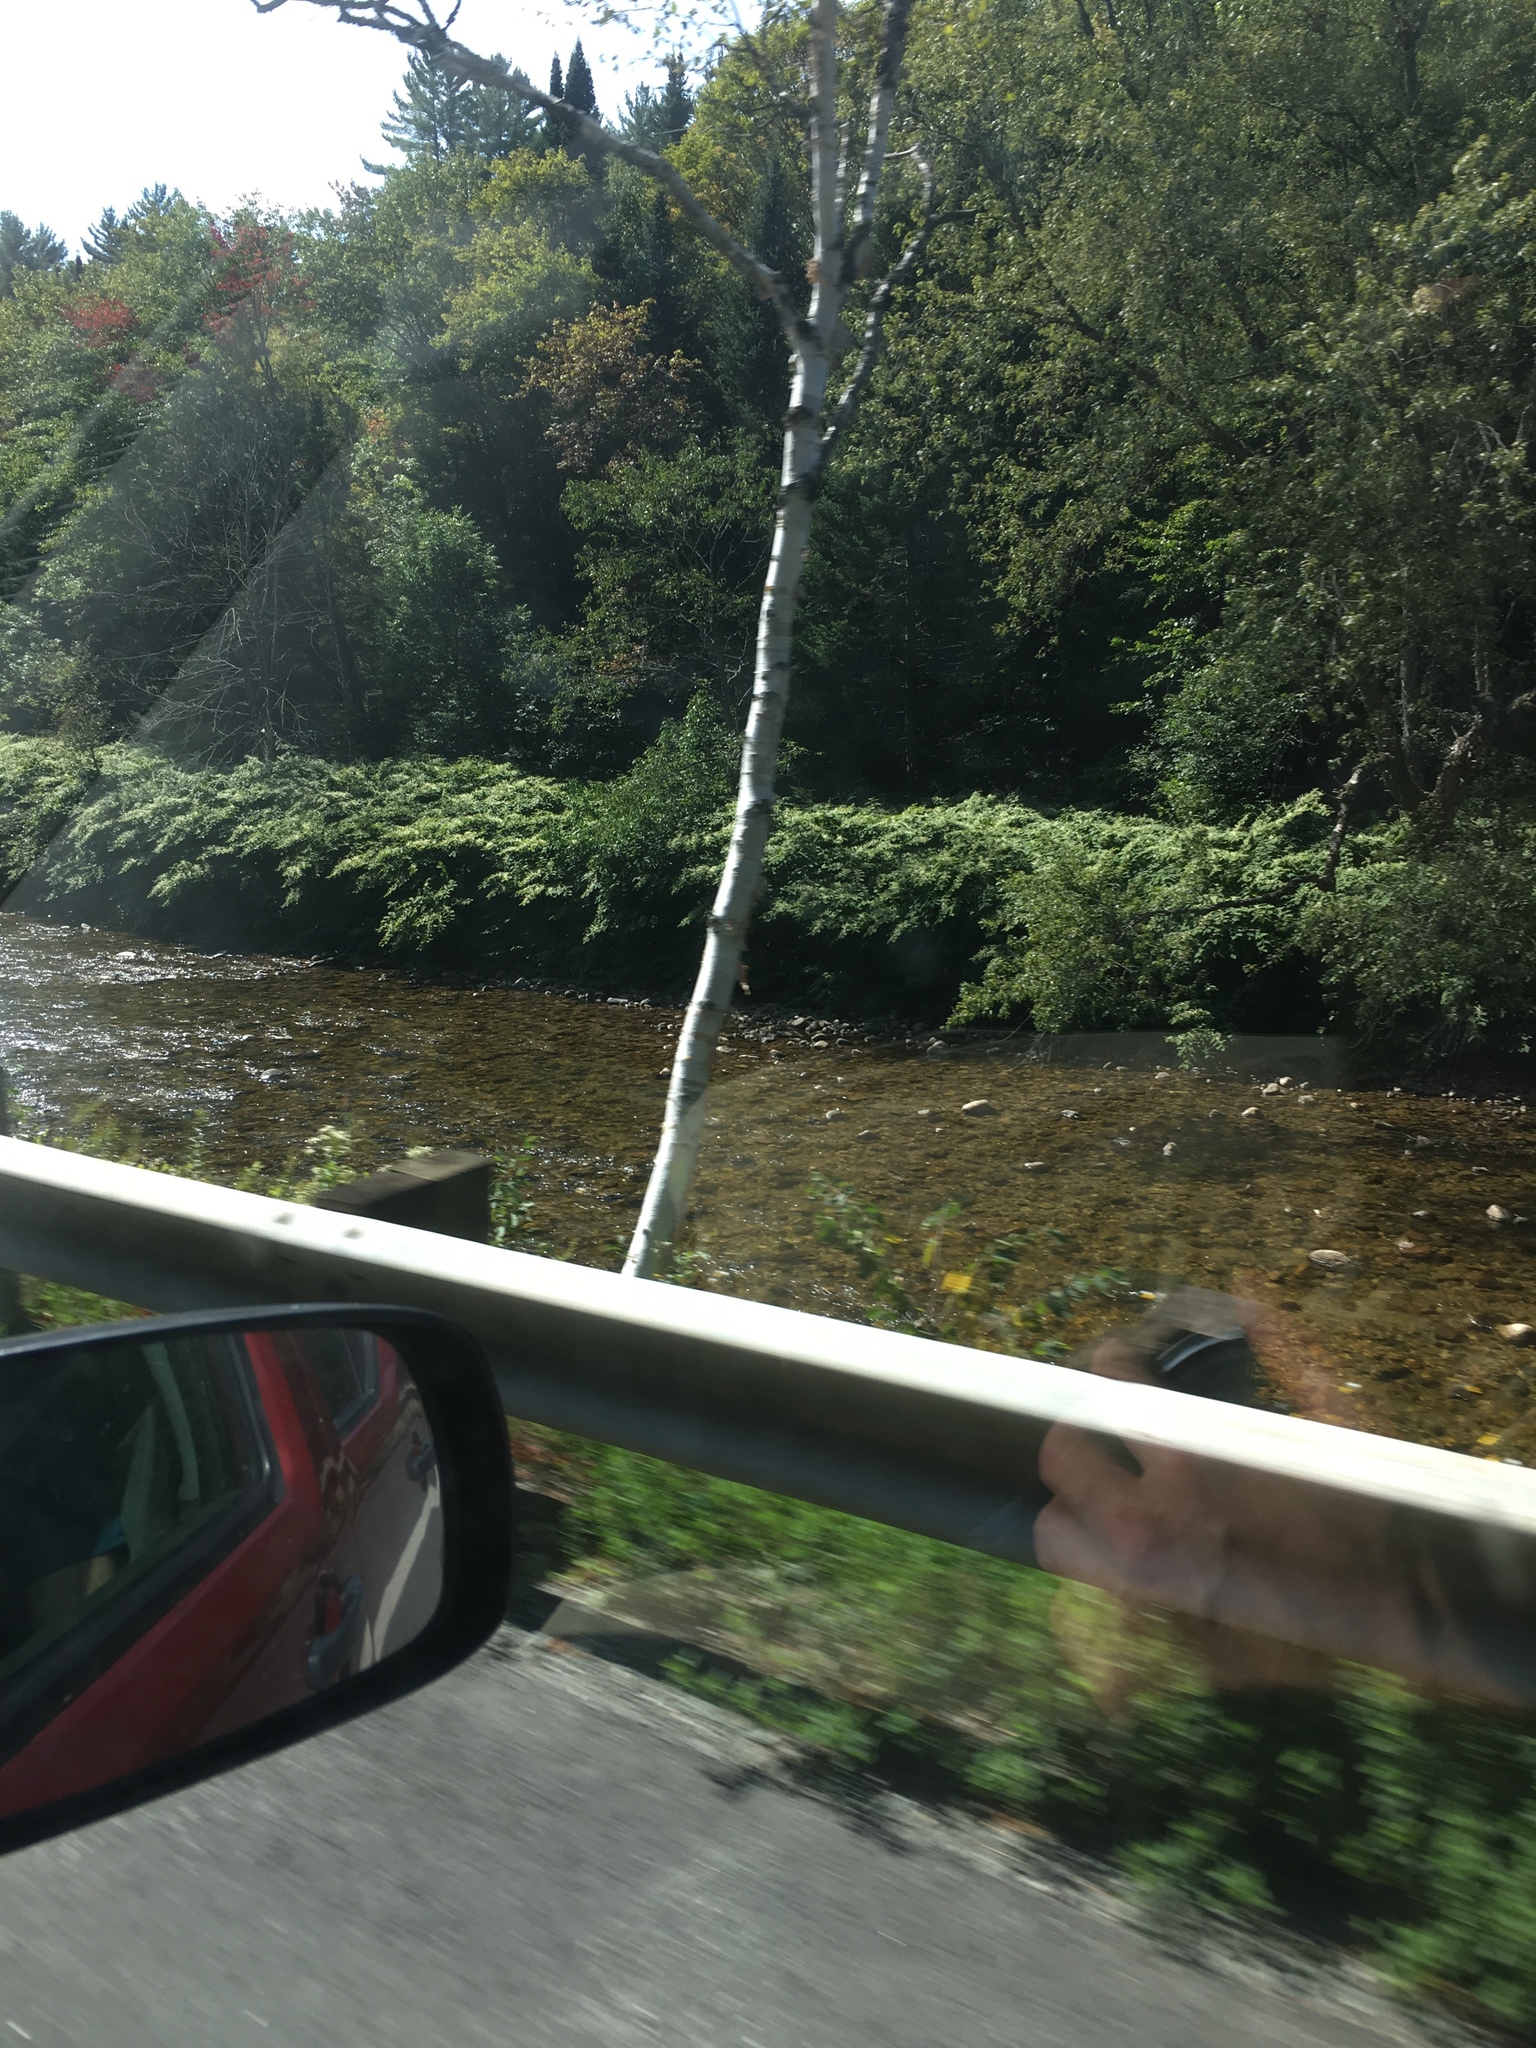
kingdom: Plantae
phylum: Tracheophyta
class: Magnoliopsida
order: Caryophyllales
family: Polygonaceae
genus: Reynoutria
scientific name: Reynoutria japonica
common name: Japanese knotweed
